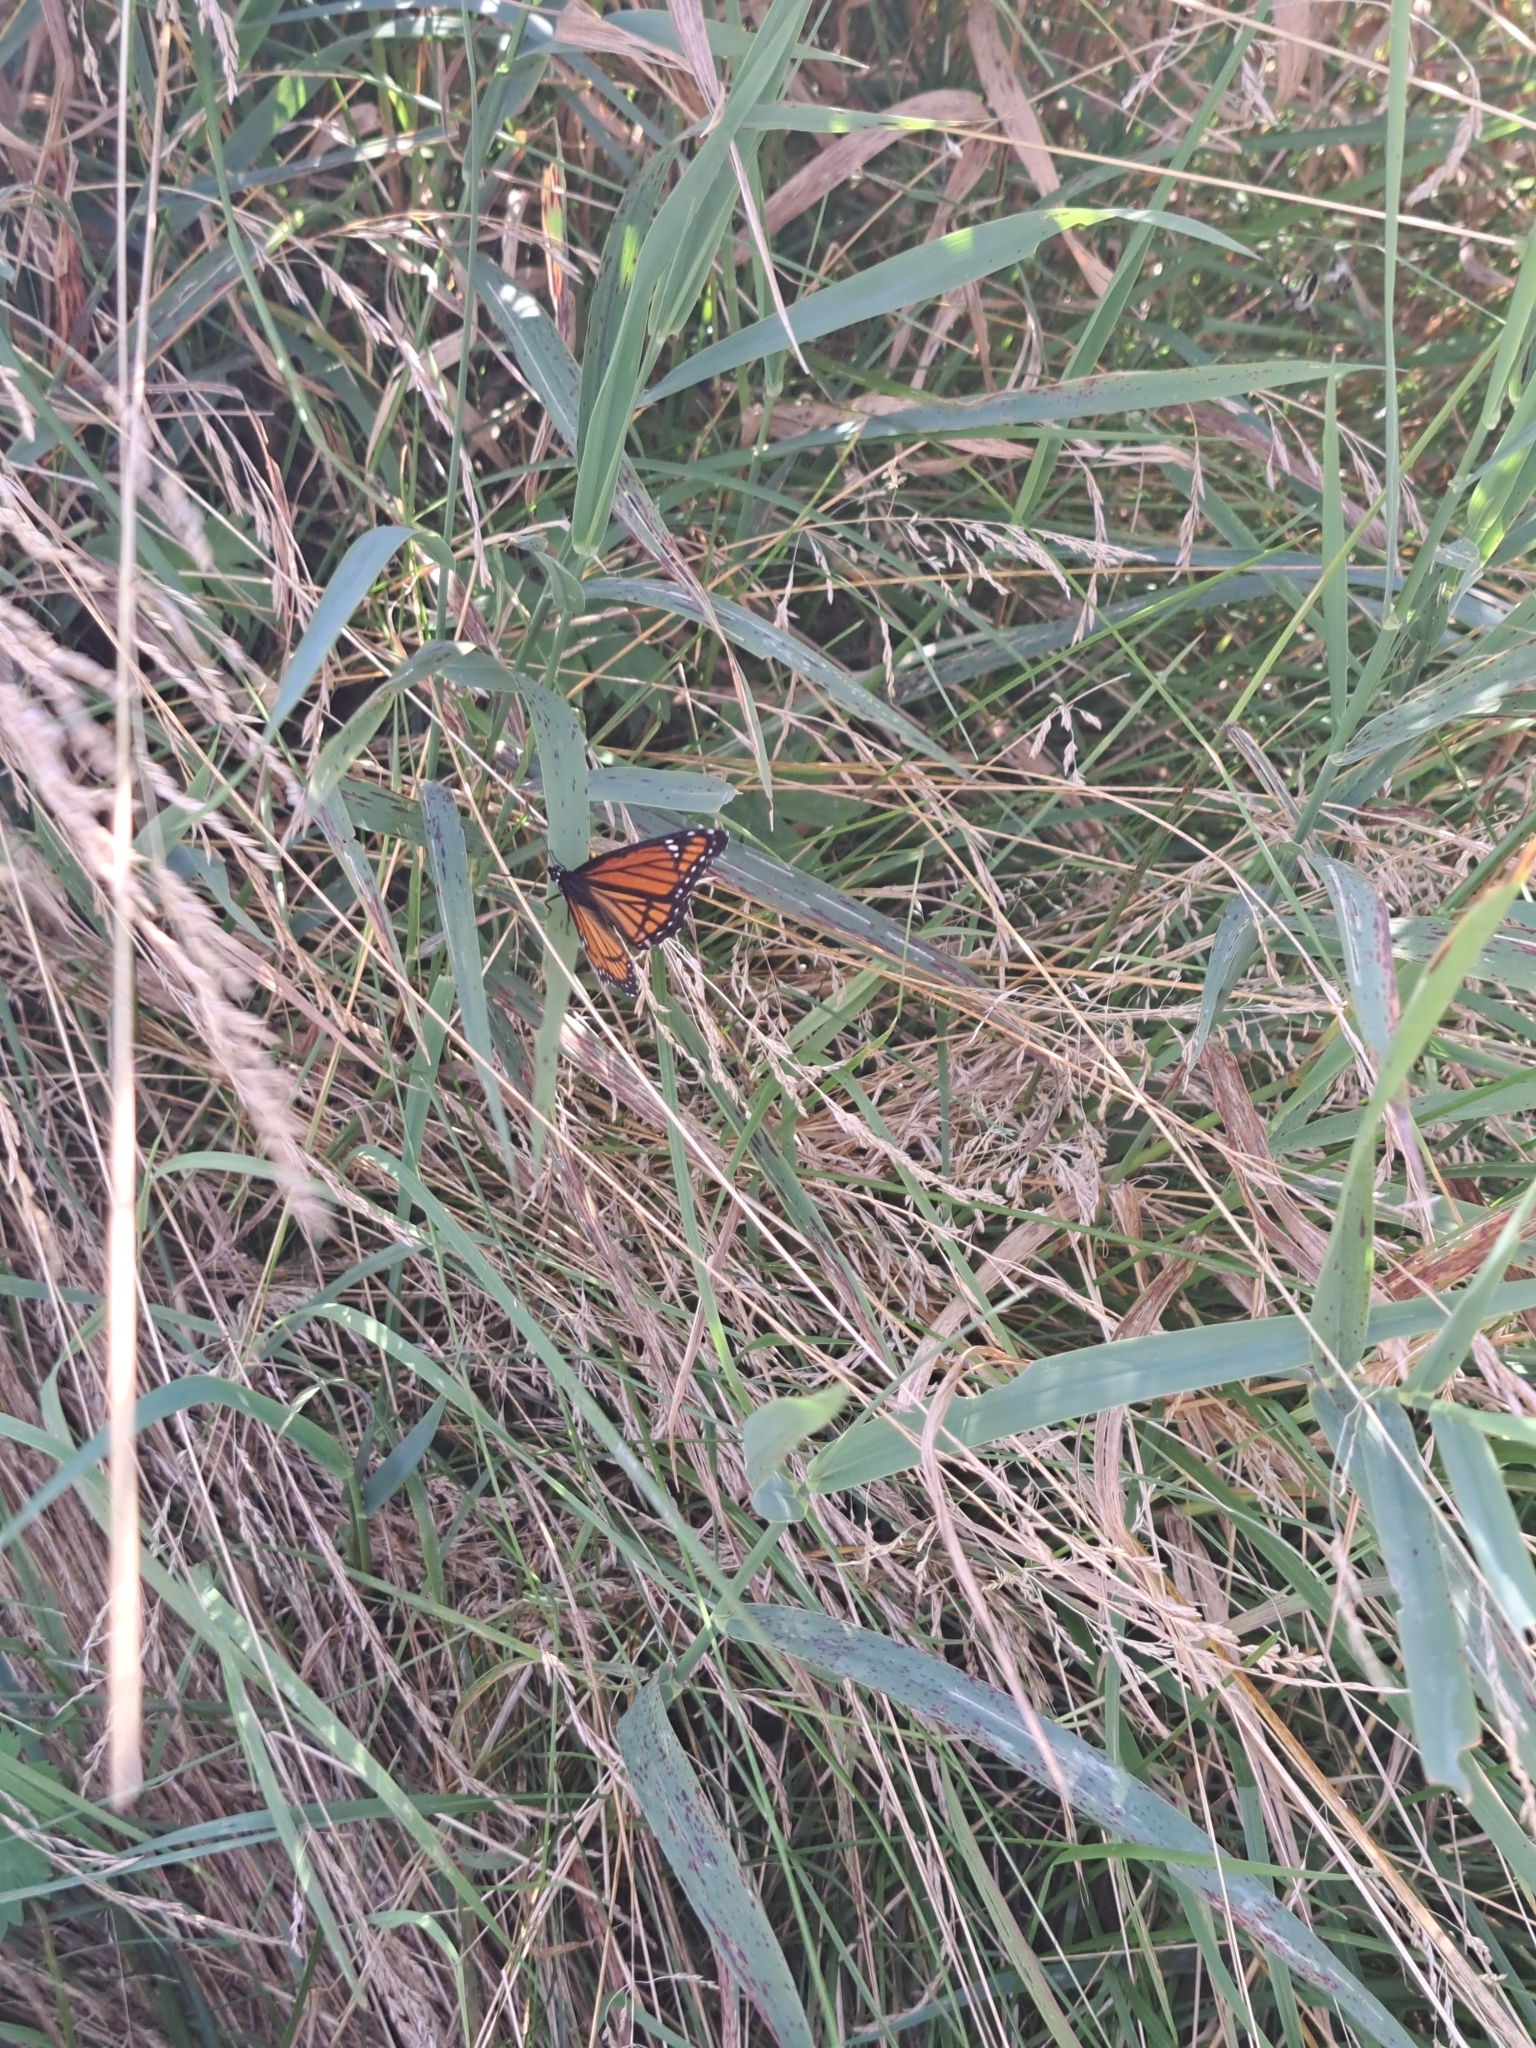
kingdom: Animalia
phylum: Arthropoda
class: Insecta
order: Lepidoptera
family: Nymphalidae
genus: Limenitis
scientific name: Limenitis archippus
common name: Viceroy
